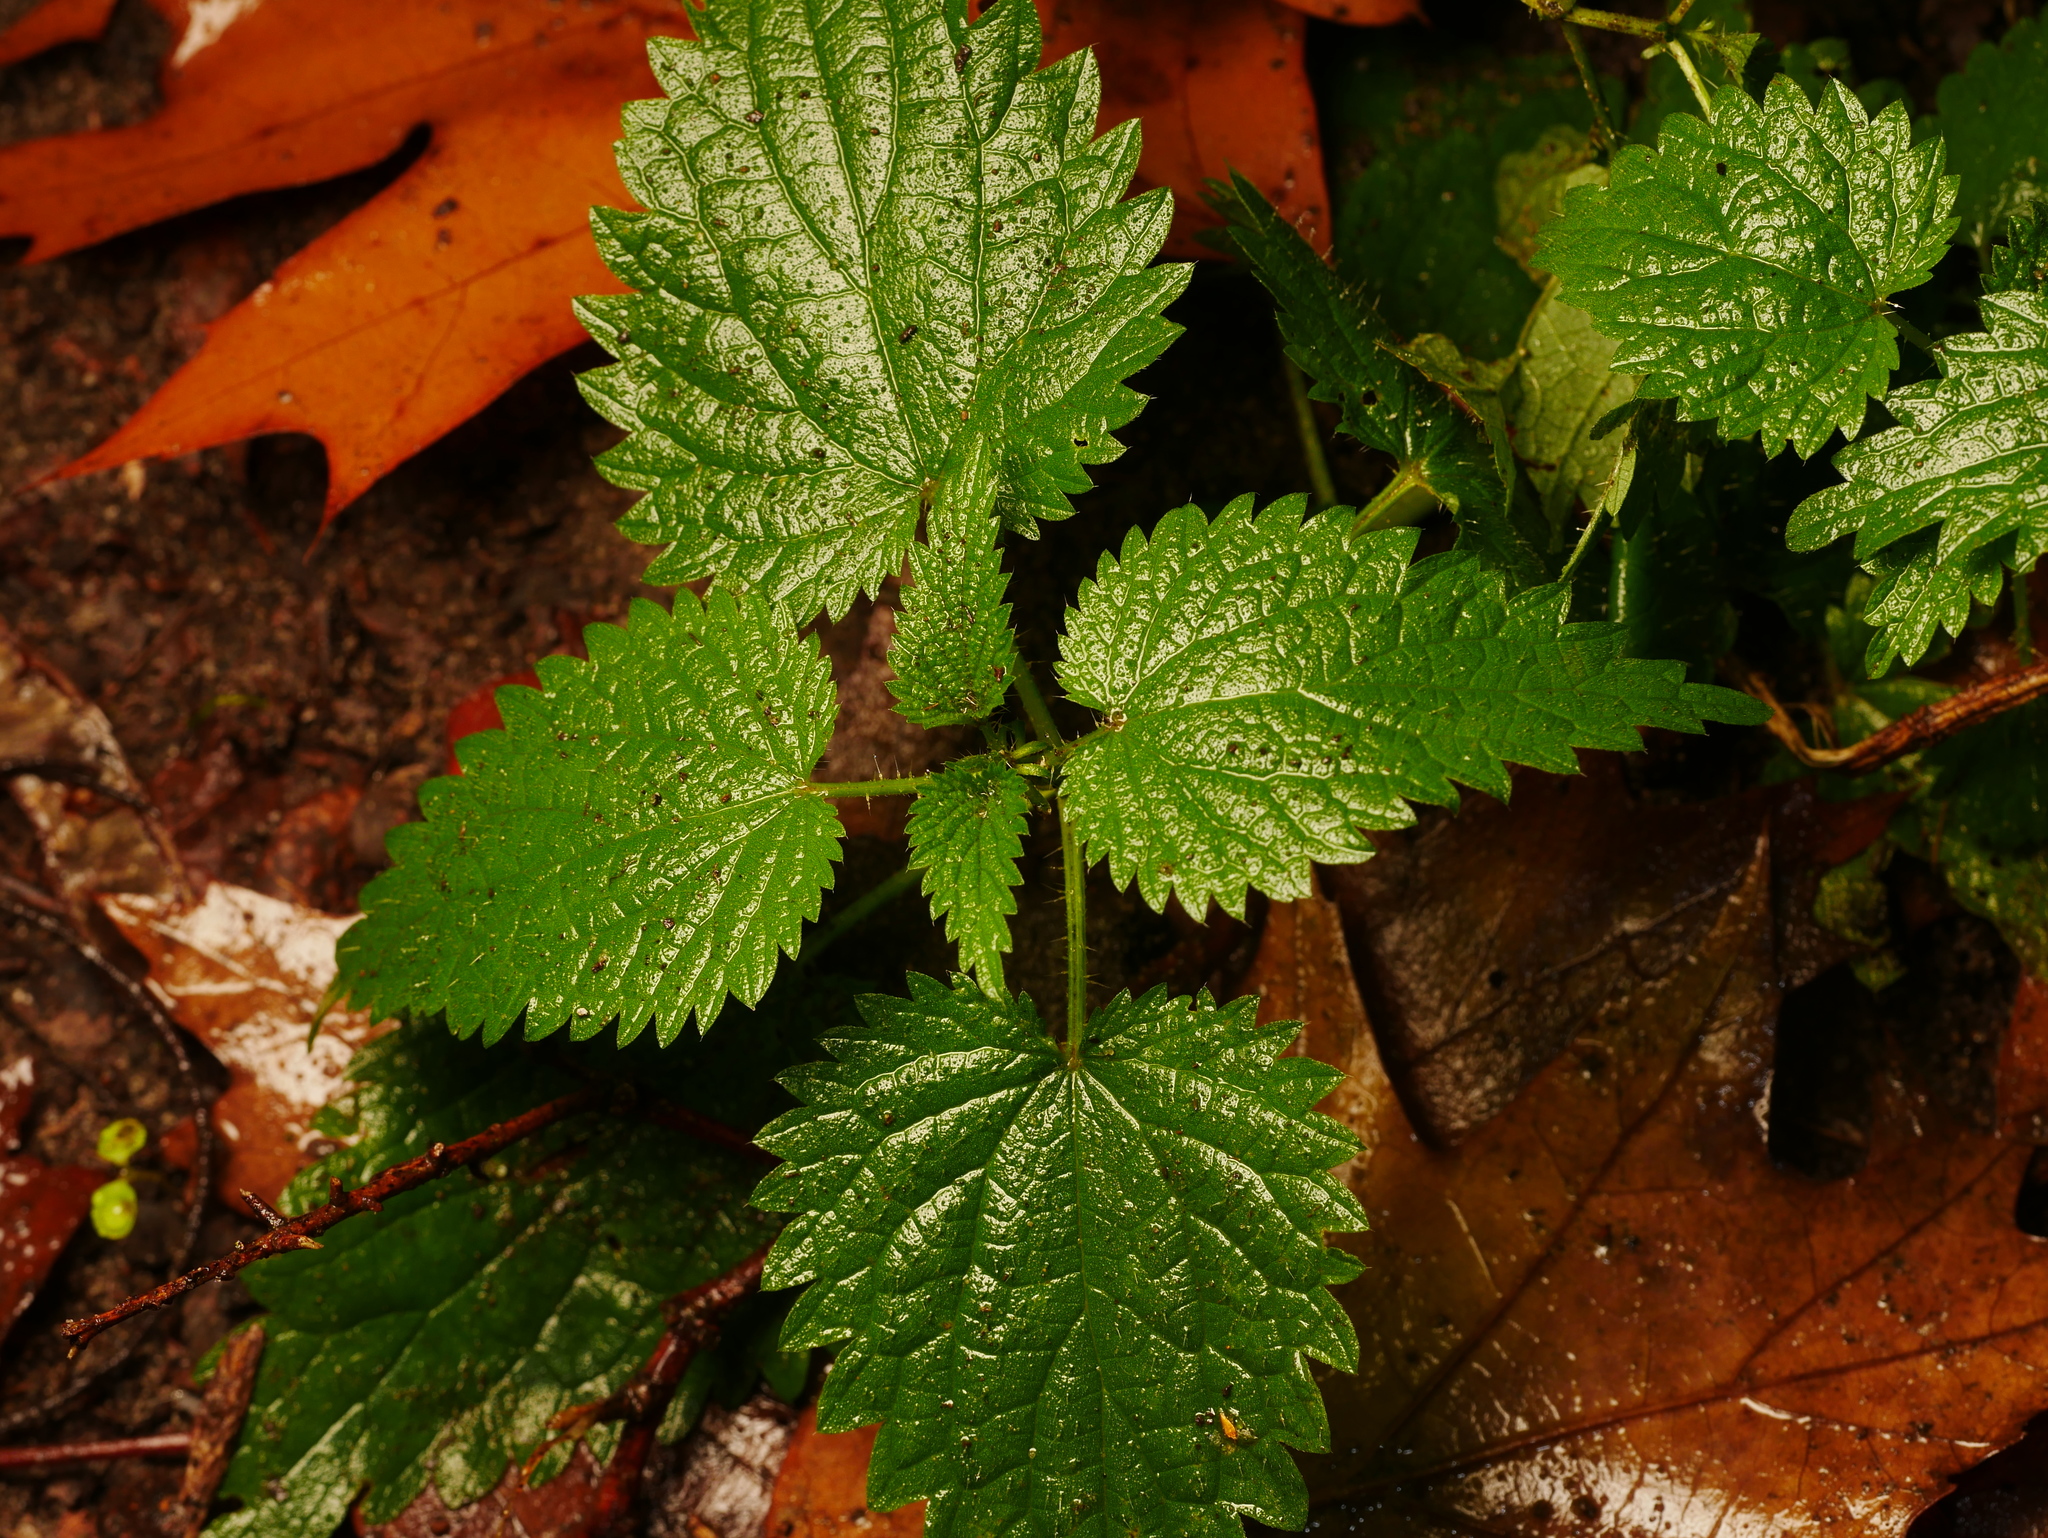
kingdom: Plantae
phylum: Tracheophyta
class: Magnoliopsida
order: Rosales
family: Urticaceae
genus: Urtica
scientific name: Urtica dioica
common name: Common nettle
